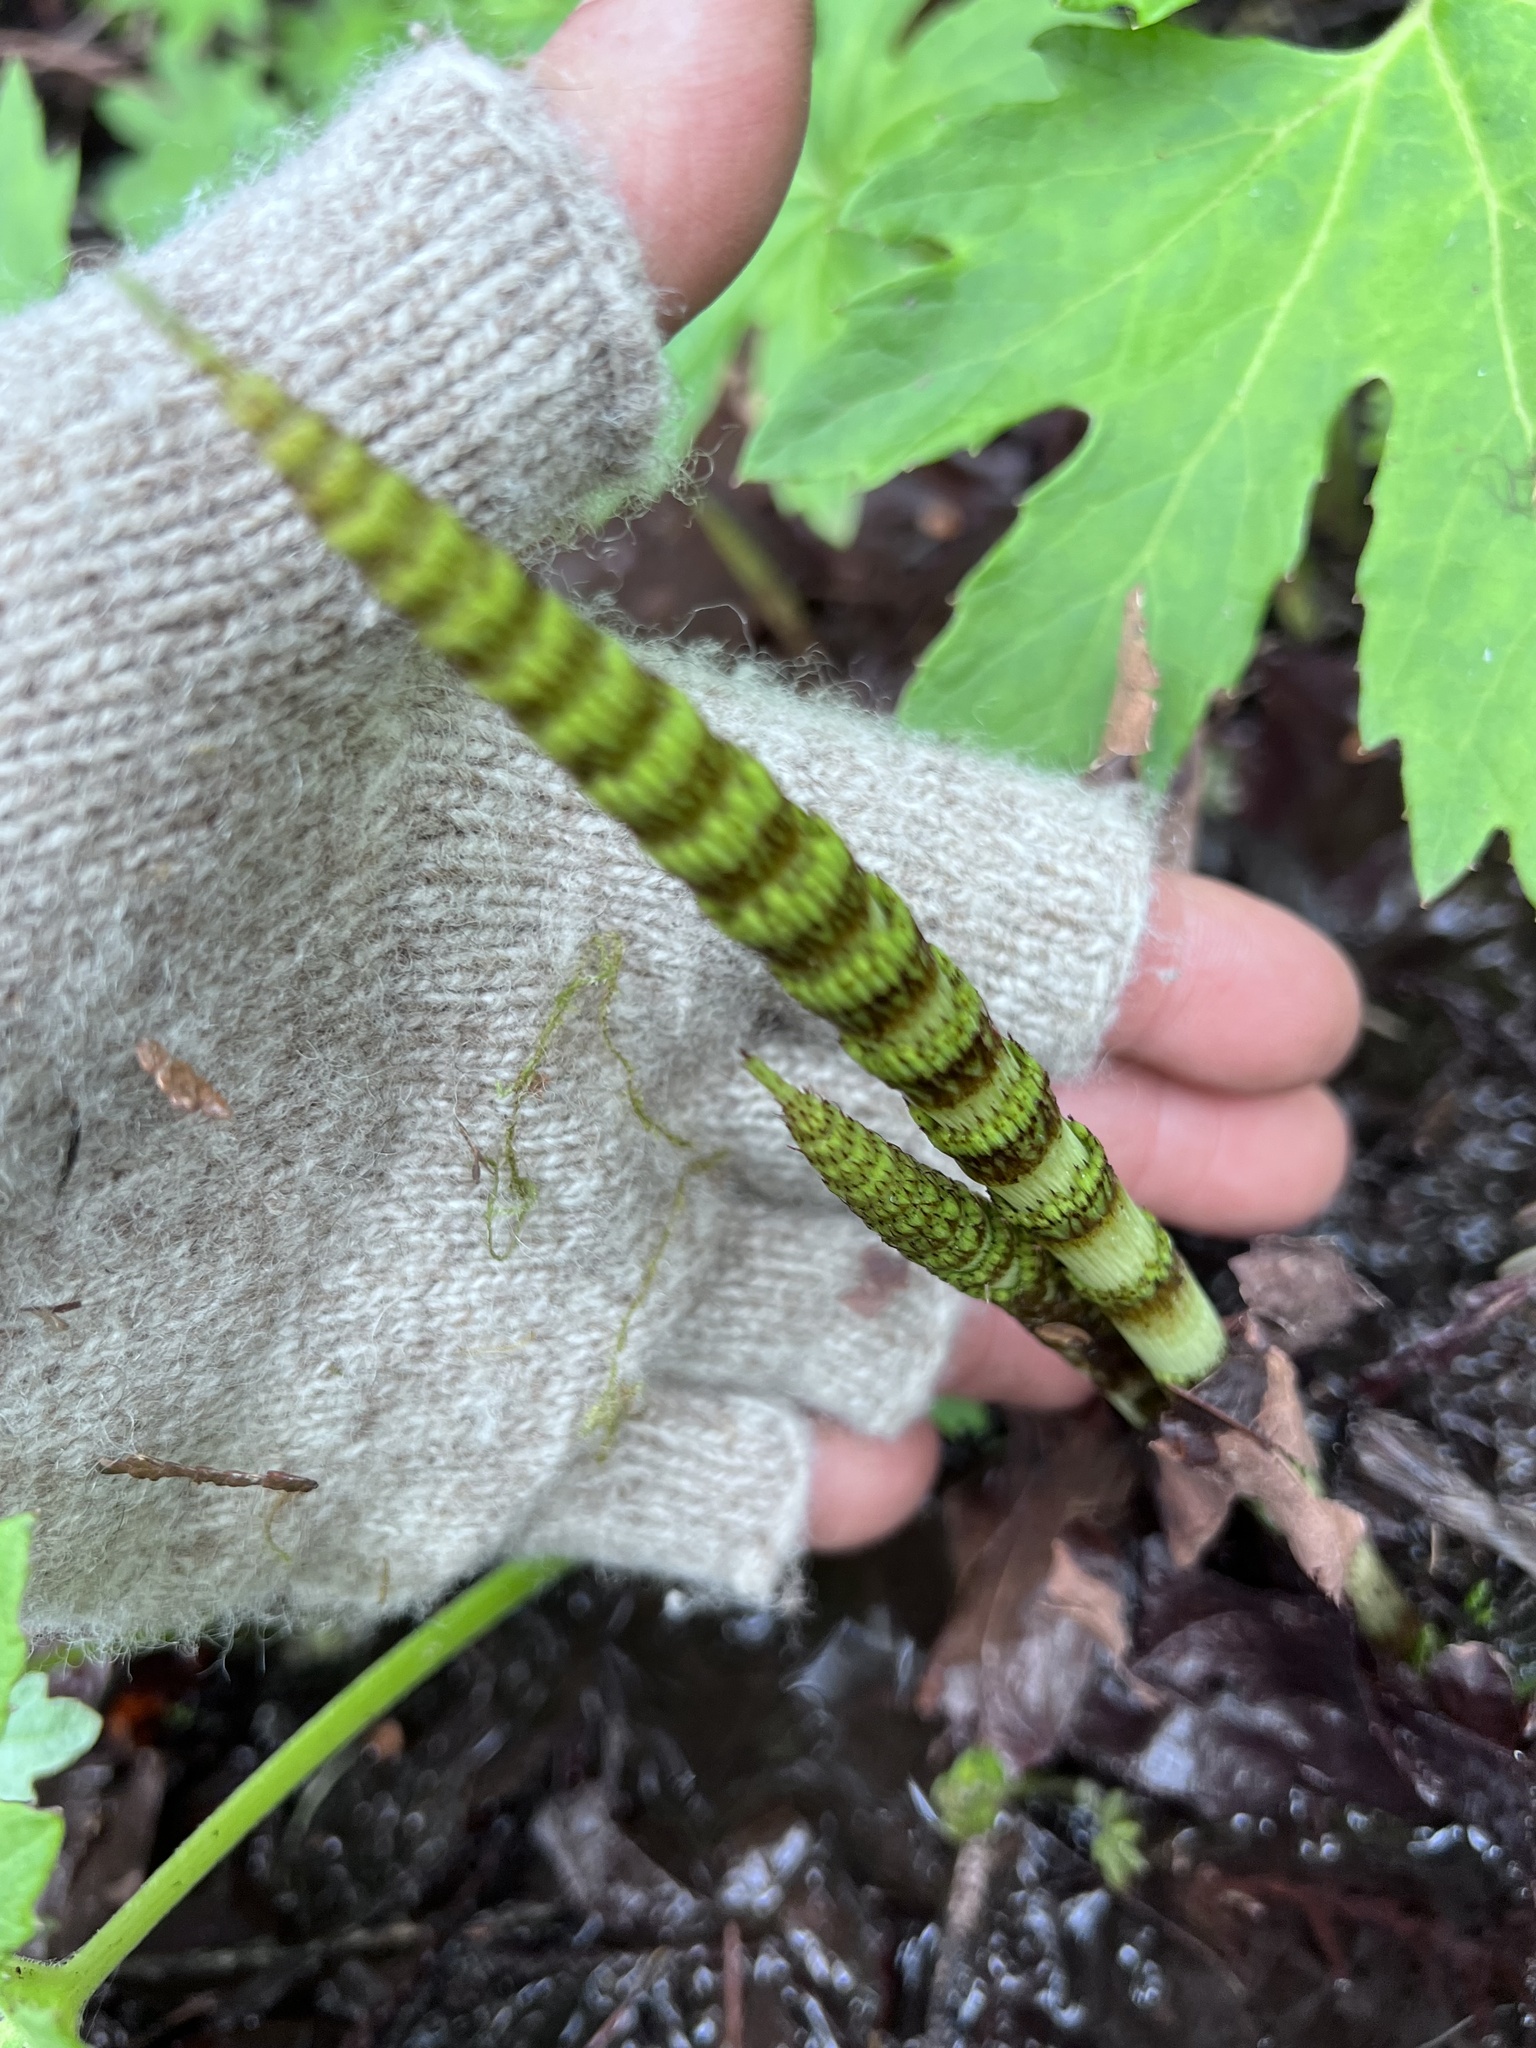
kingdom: Plantae
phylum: Tracheophyta
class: Polypodiopsida
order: Equisetales
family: Equisetaceae
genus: Equisetum
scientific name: Equisetum braunii
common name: Braun's horsetail
